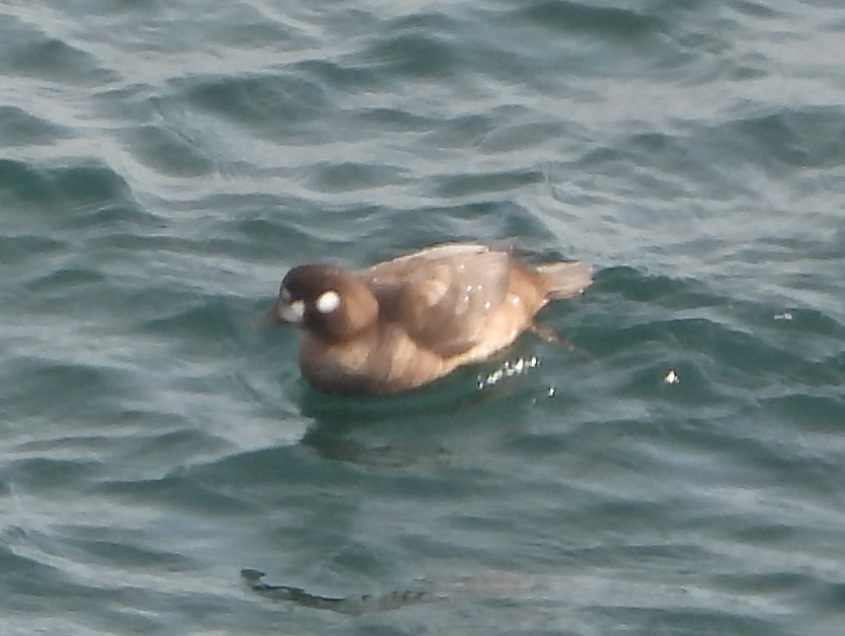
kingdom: Animalia
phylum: Chordata
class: Aves
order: Anseriformes
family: Anatidae
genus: Histrionicus
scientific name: Histrionicus histrionicus
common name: Harlequin duck
